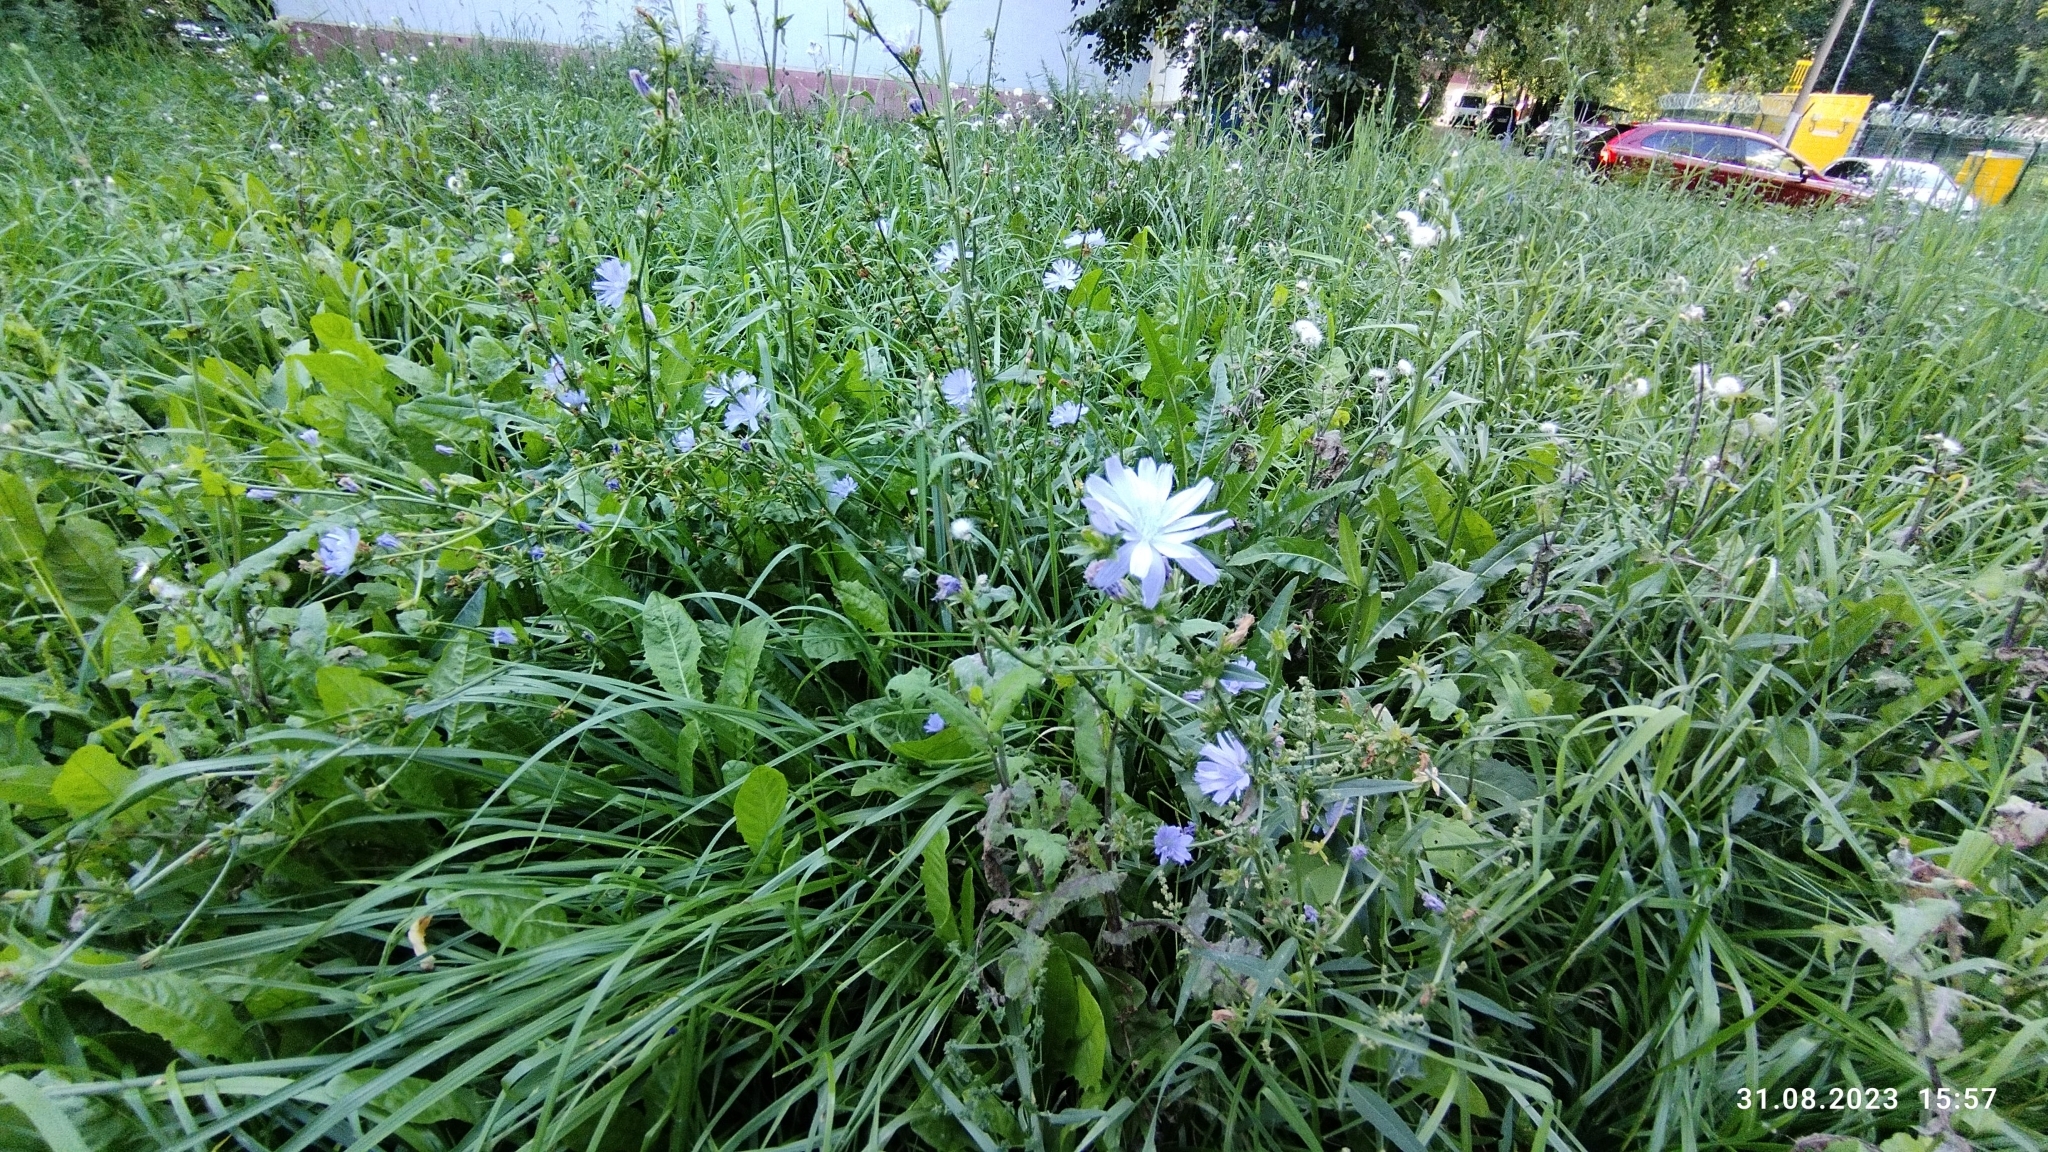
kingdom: Plantae
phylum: Tracheophyta
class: Magnoliopsida
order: Asterales
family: Asteraceae
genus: Cichorium
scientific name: Cichorium intybus
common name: Chicory
